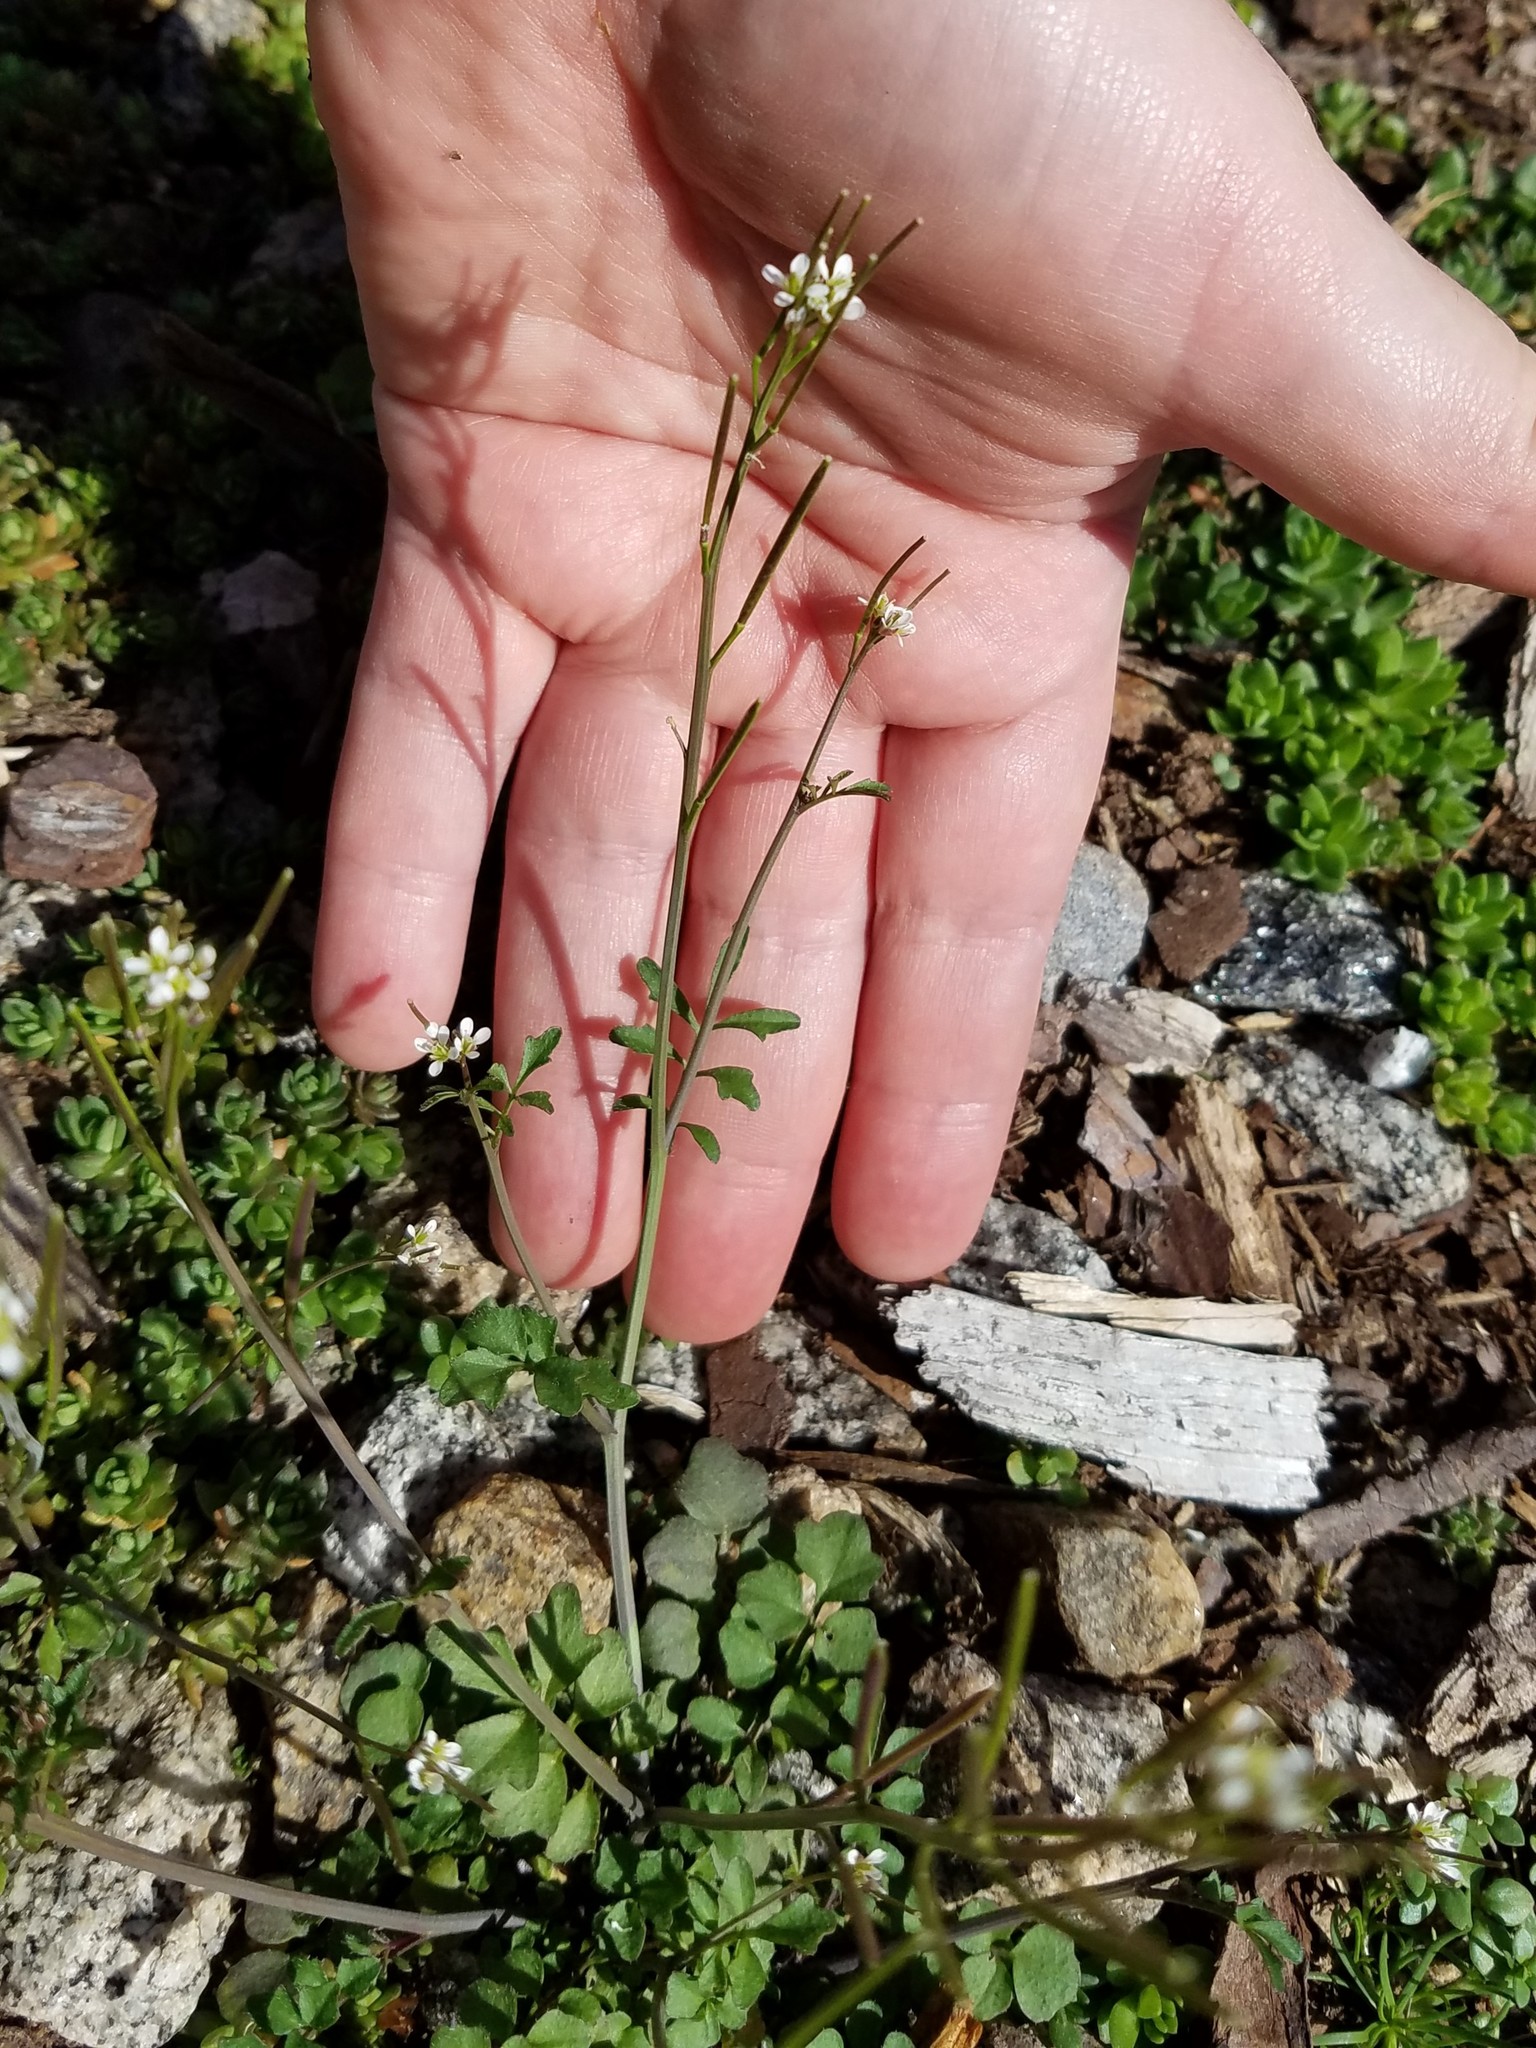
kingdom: Plantae
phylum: Tracheophyta
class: Magnoliopsida
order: Brassicales
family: Brassicaceae
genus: Cardamine
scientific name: Cardamine hirsuta
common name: Hairy bittercress
